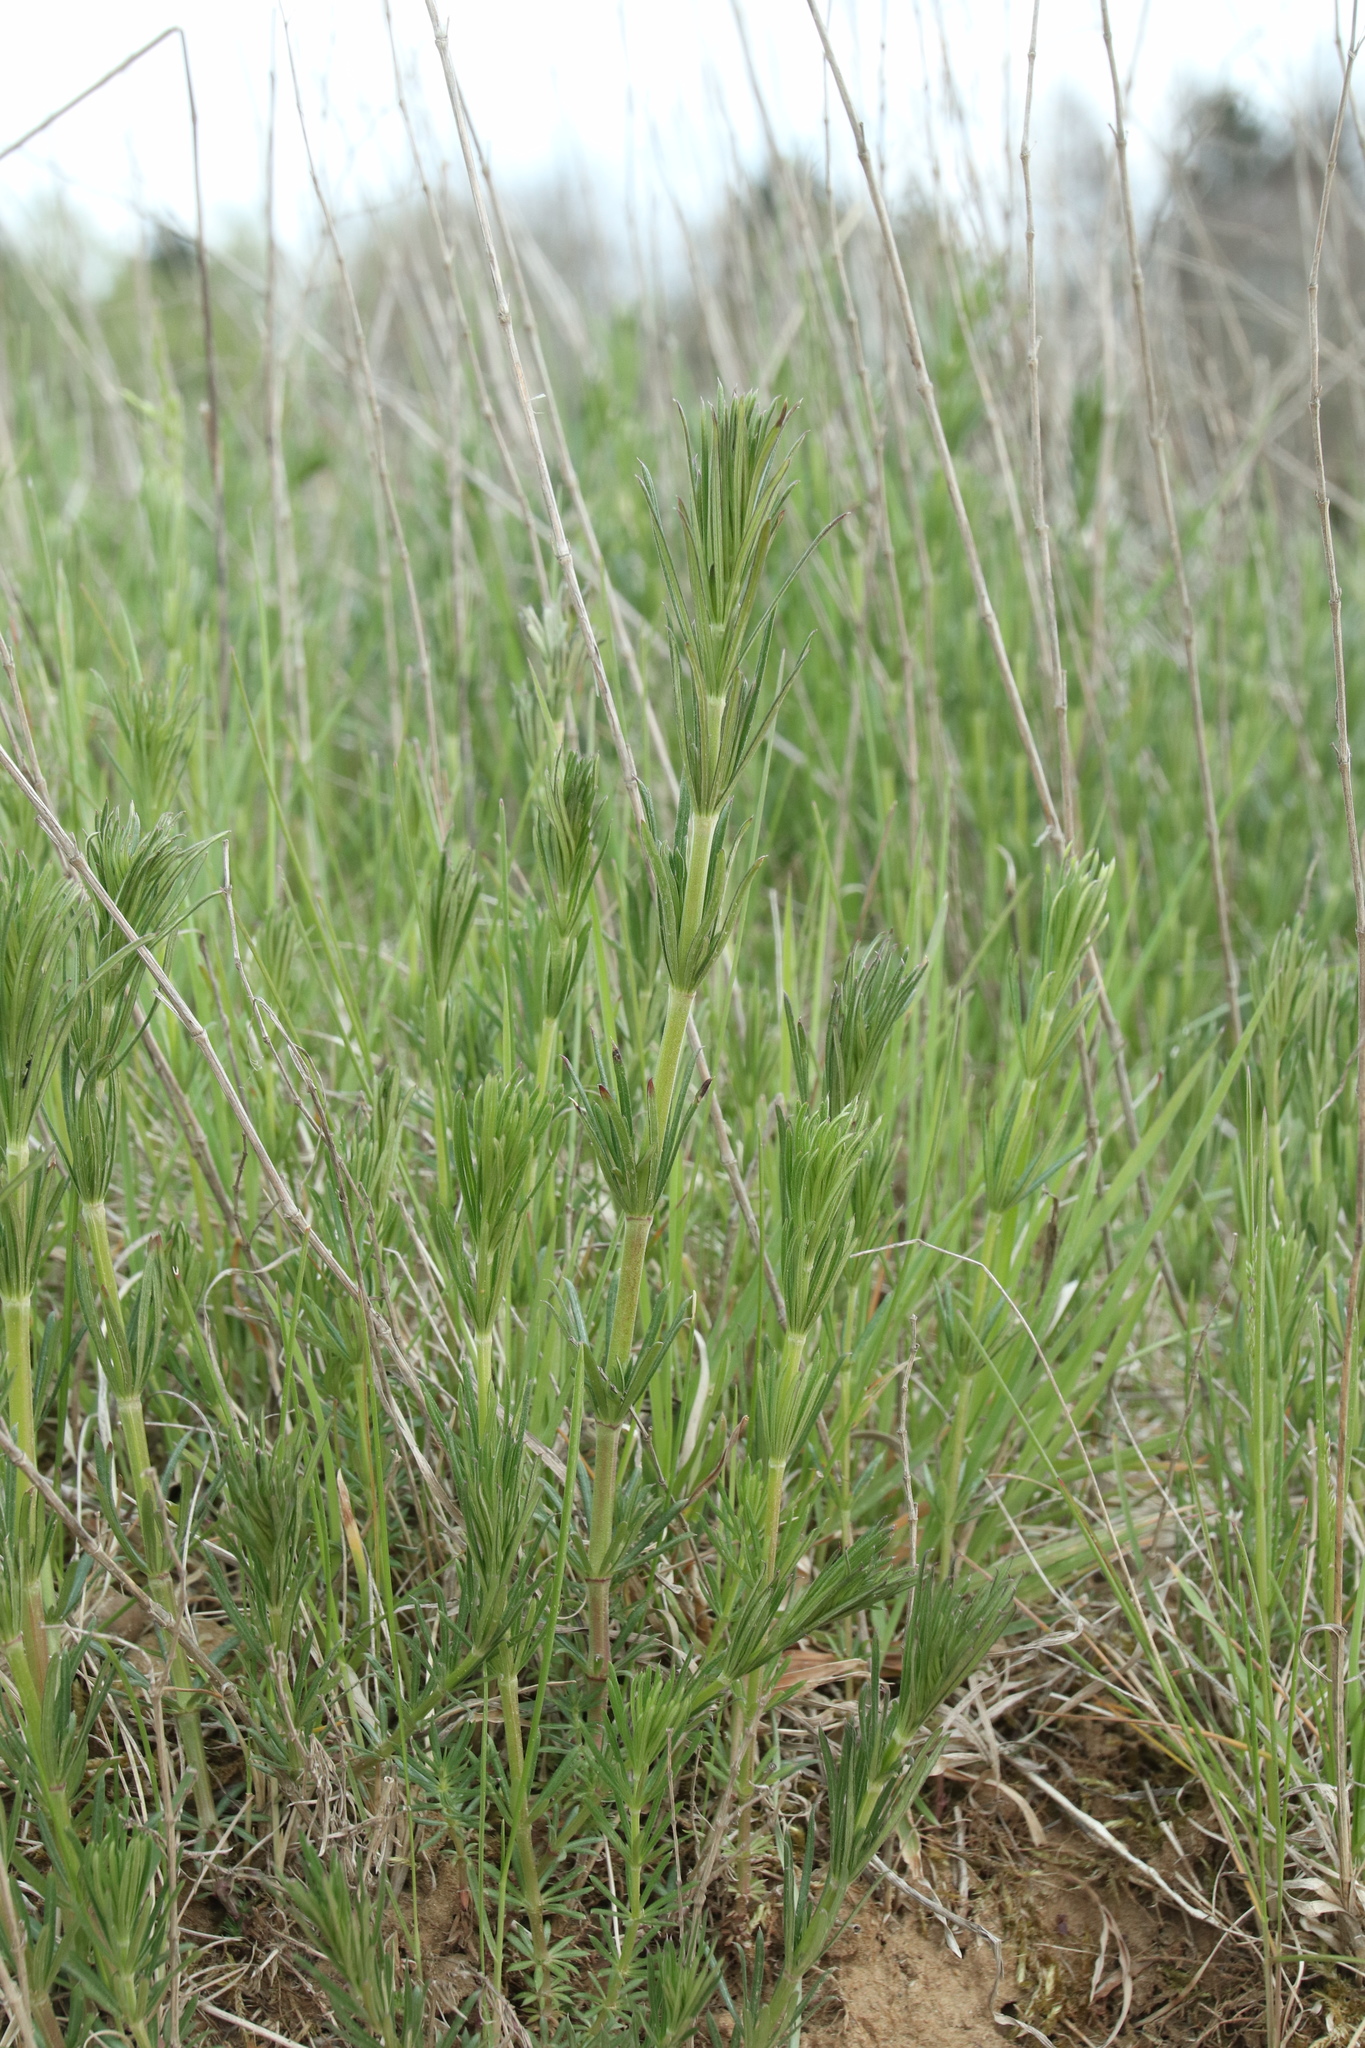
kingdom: Plantae
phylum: Tracheophyta
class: Magnoliopsida
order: Gentianales
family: Rubiaceae
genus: Galium
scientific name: Galium aparine
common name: Cleavers
